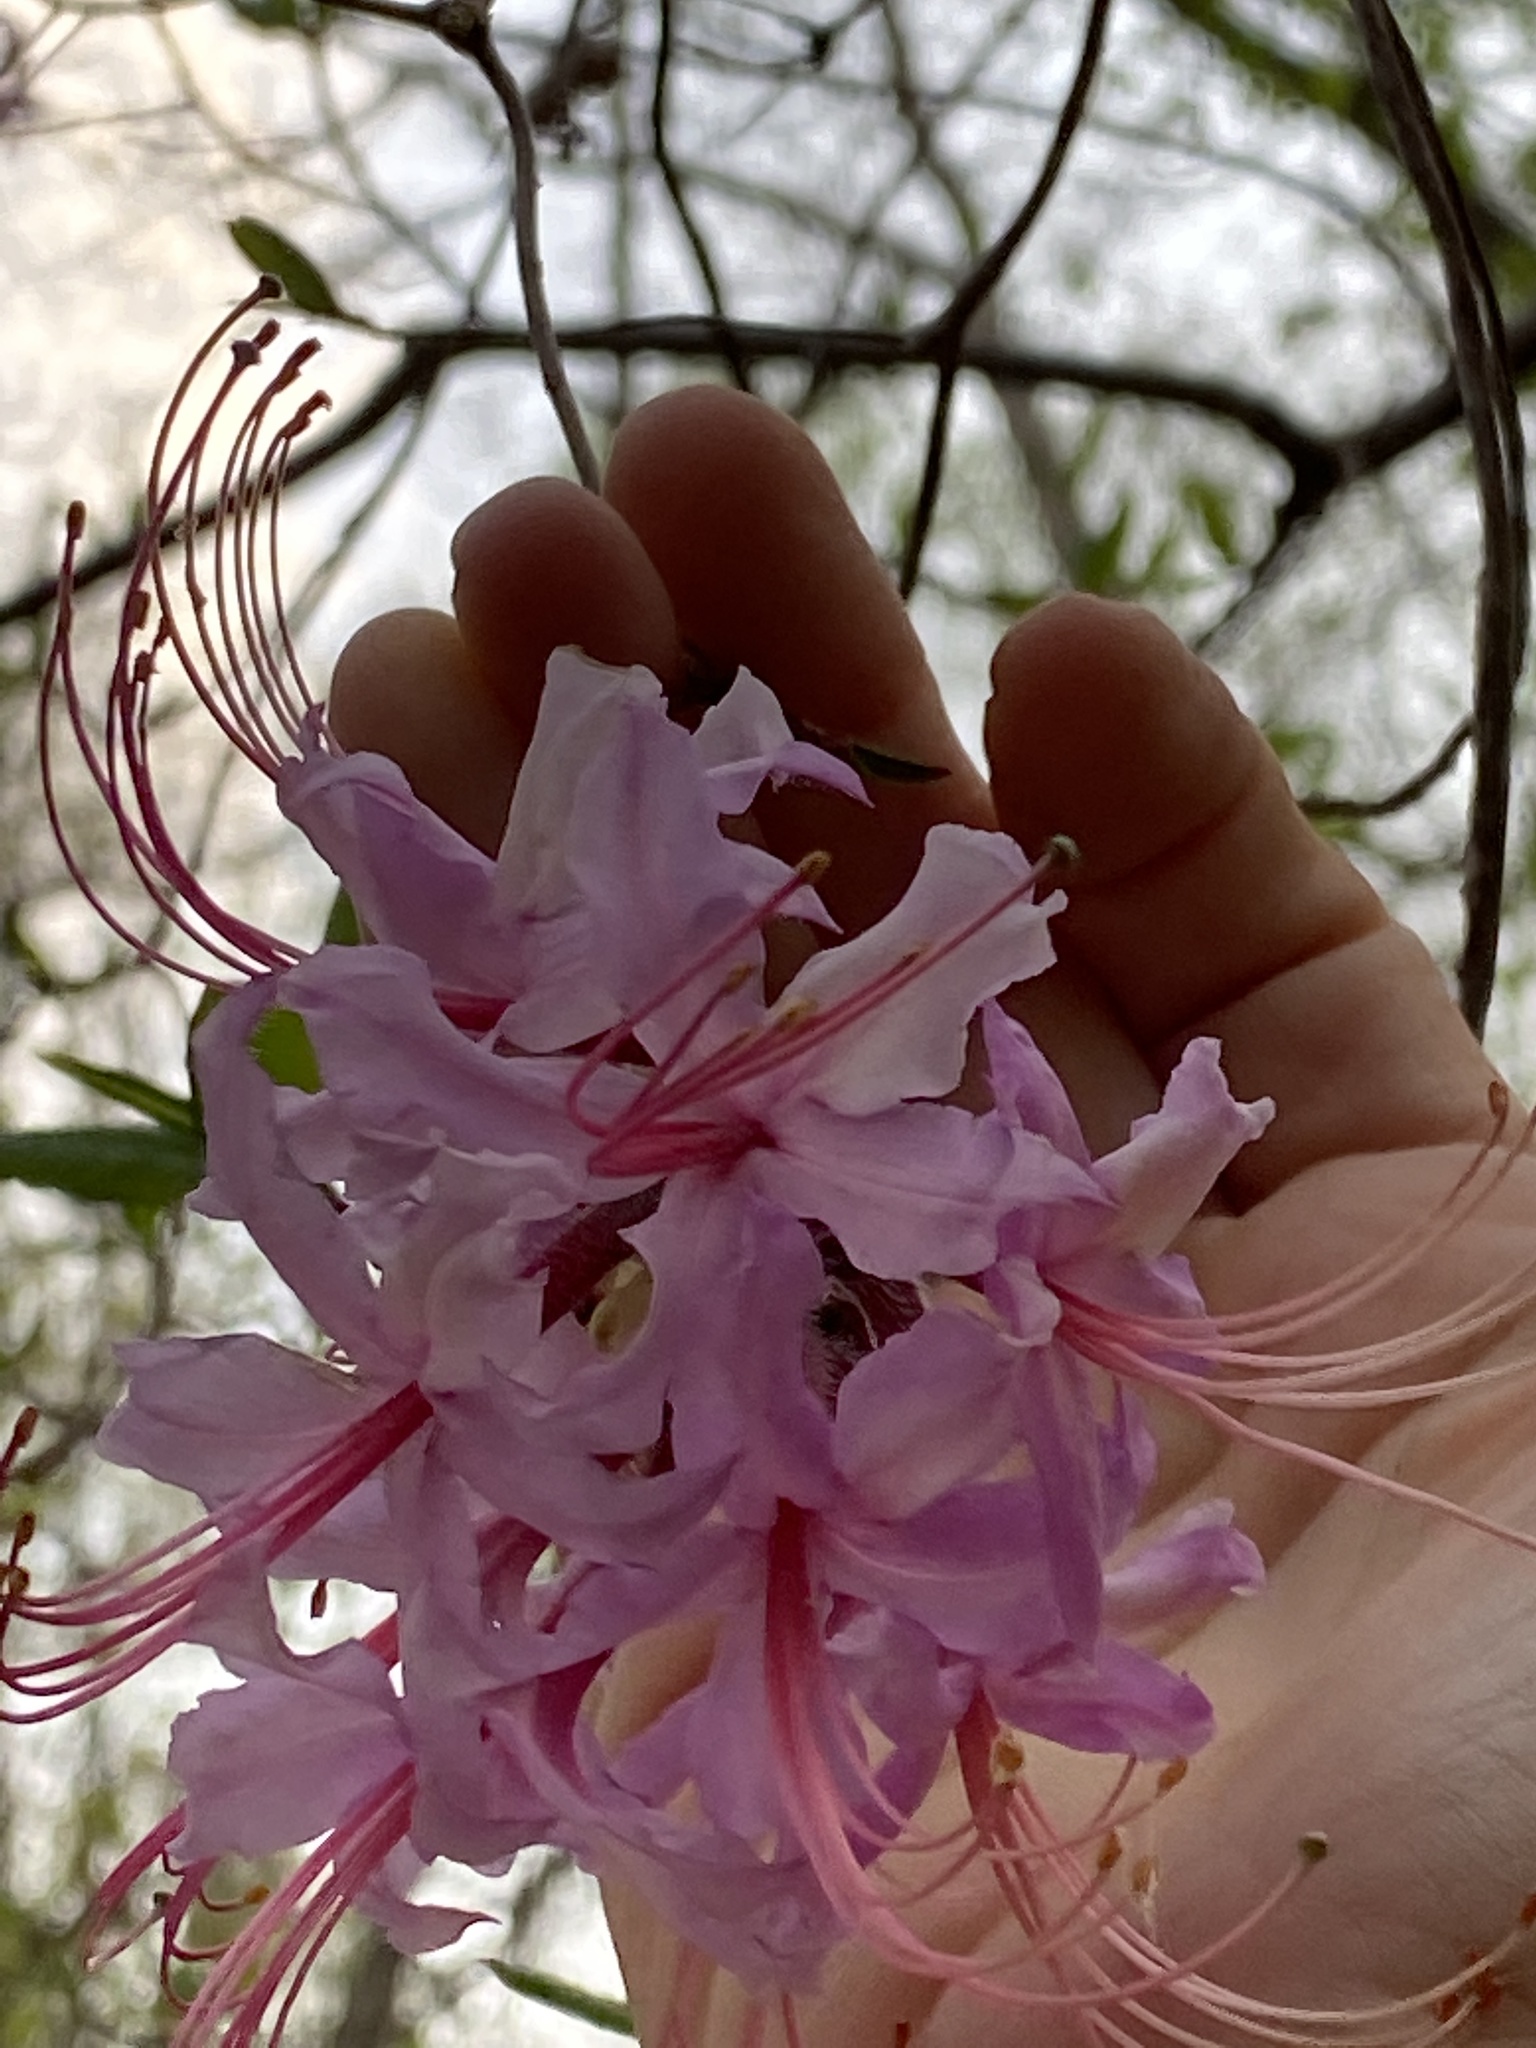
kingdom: Plantae
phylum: Tracheophyta
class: Magnoliopsida
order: Ericales
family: Ericaceae
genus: Rhododendron
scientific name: Rhododendron periclymenoides
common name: Election-pink
